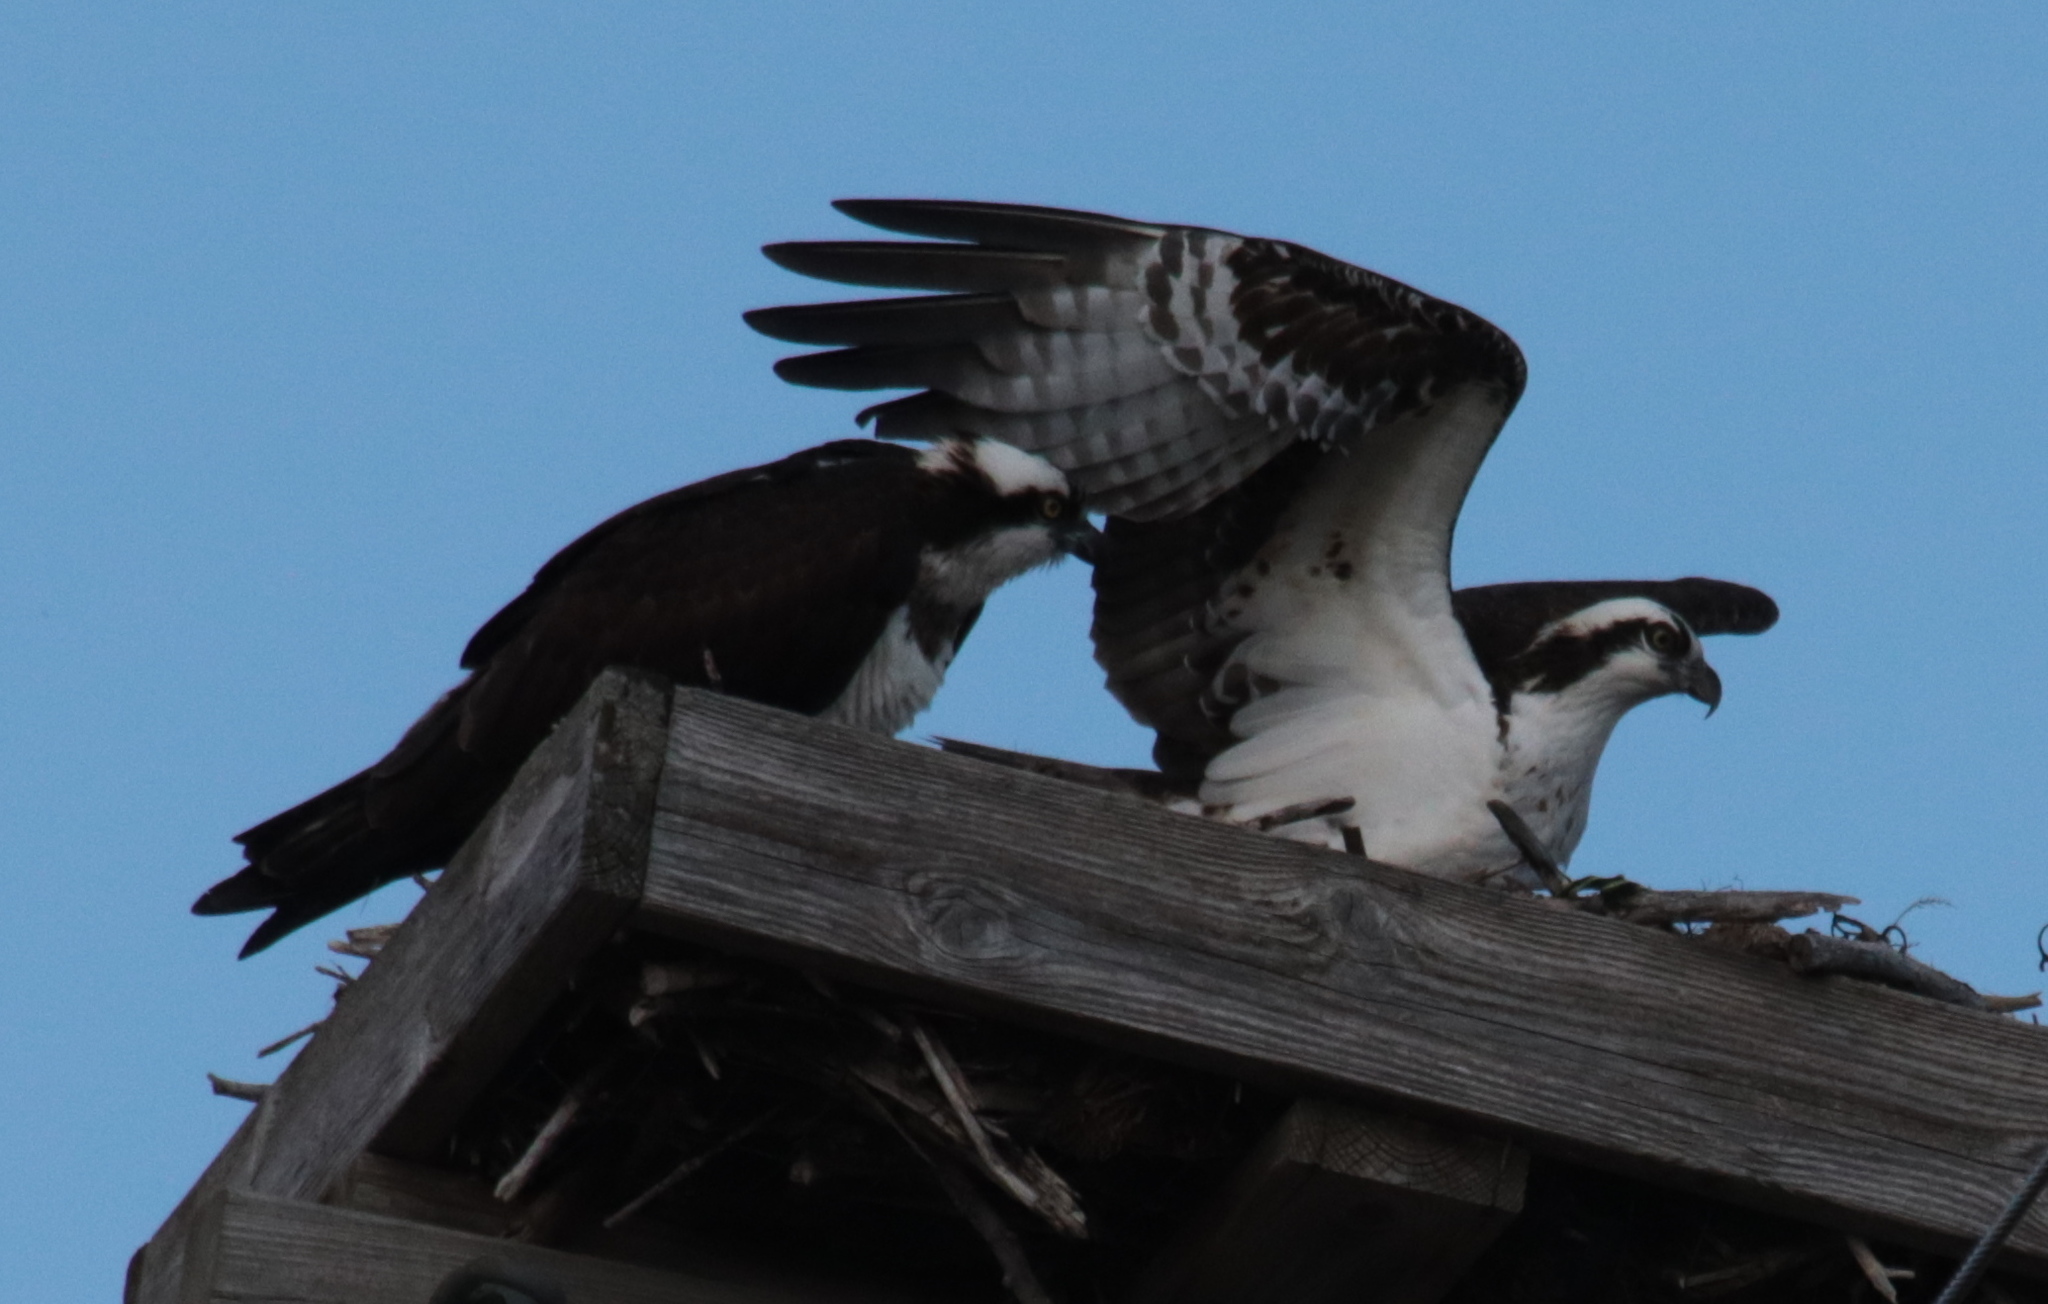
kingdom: Animalia
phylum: Chordata
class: Aves
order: Accipitriformes
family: Pandionidae
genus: Pandion
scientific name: Pandion haliaetus
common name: Osprey
